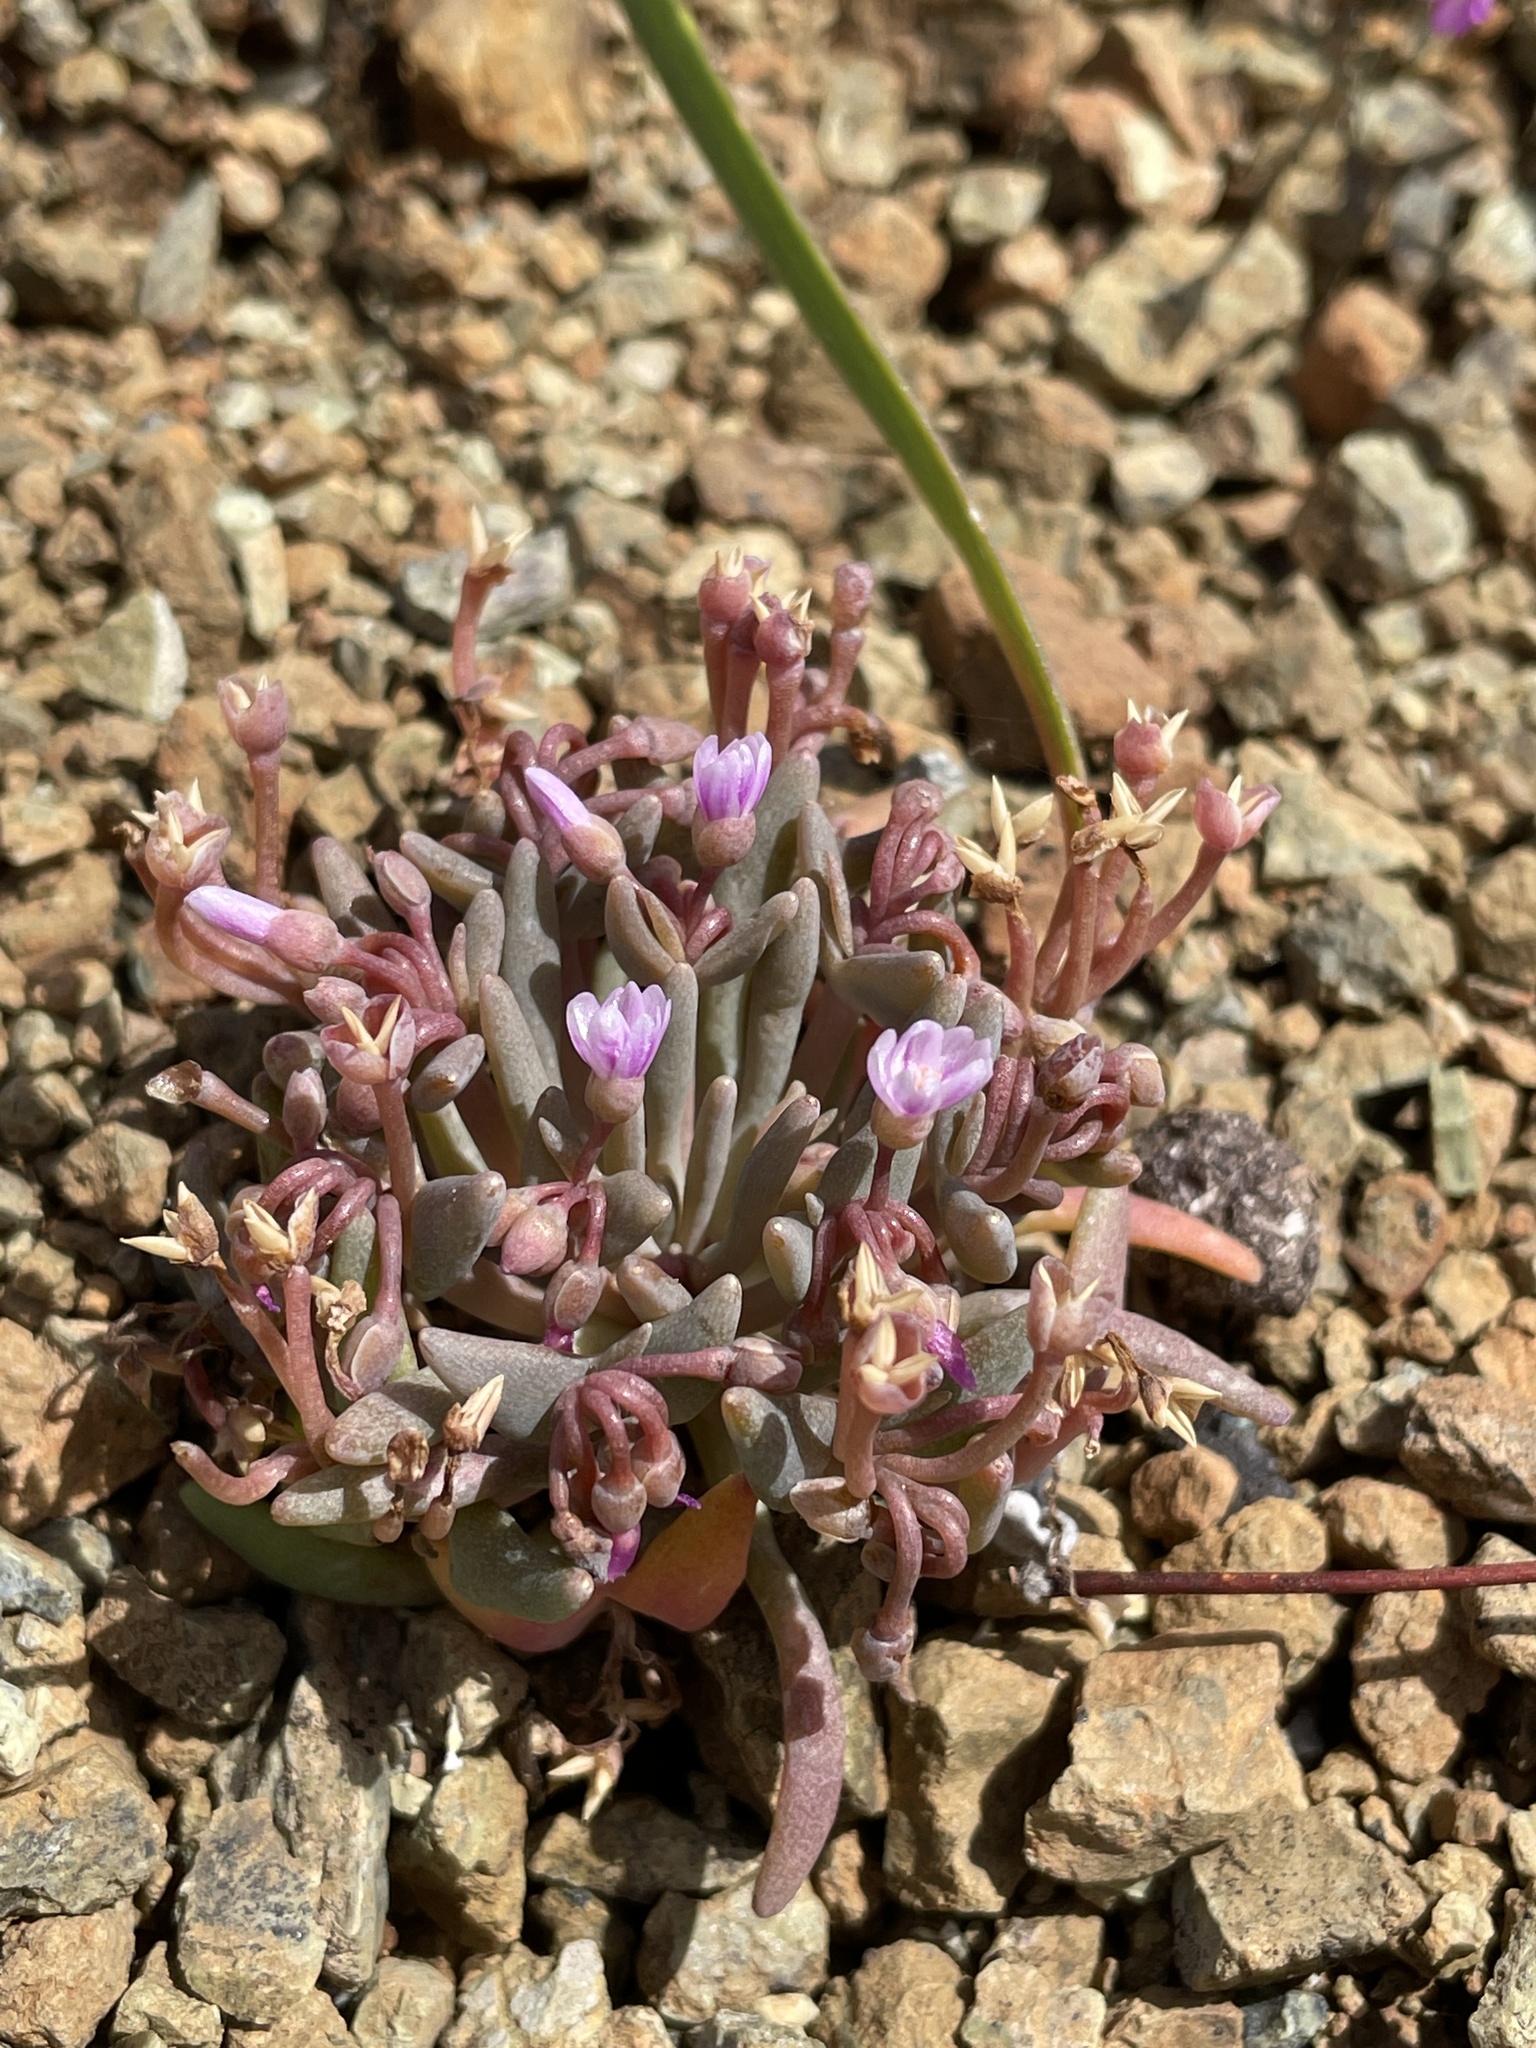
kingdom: Plantae
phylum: Tracheophyta
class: Magnoliopsida
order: Caryophyllales
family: Montiaceae
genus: Claytonia
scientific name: Claytonia exigua
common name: Pale spring beauty
